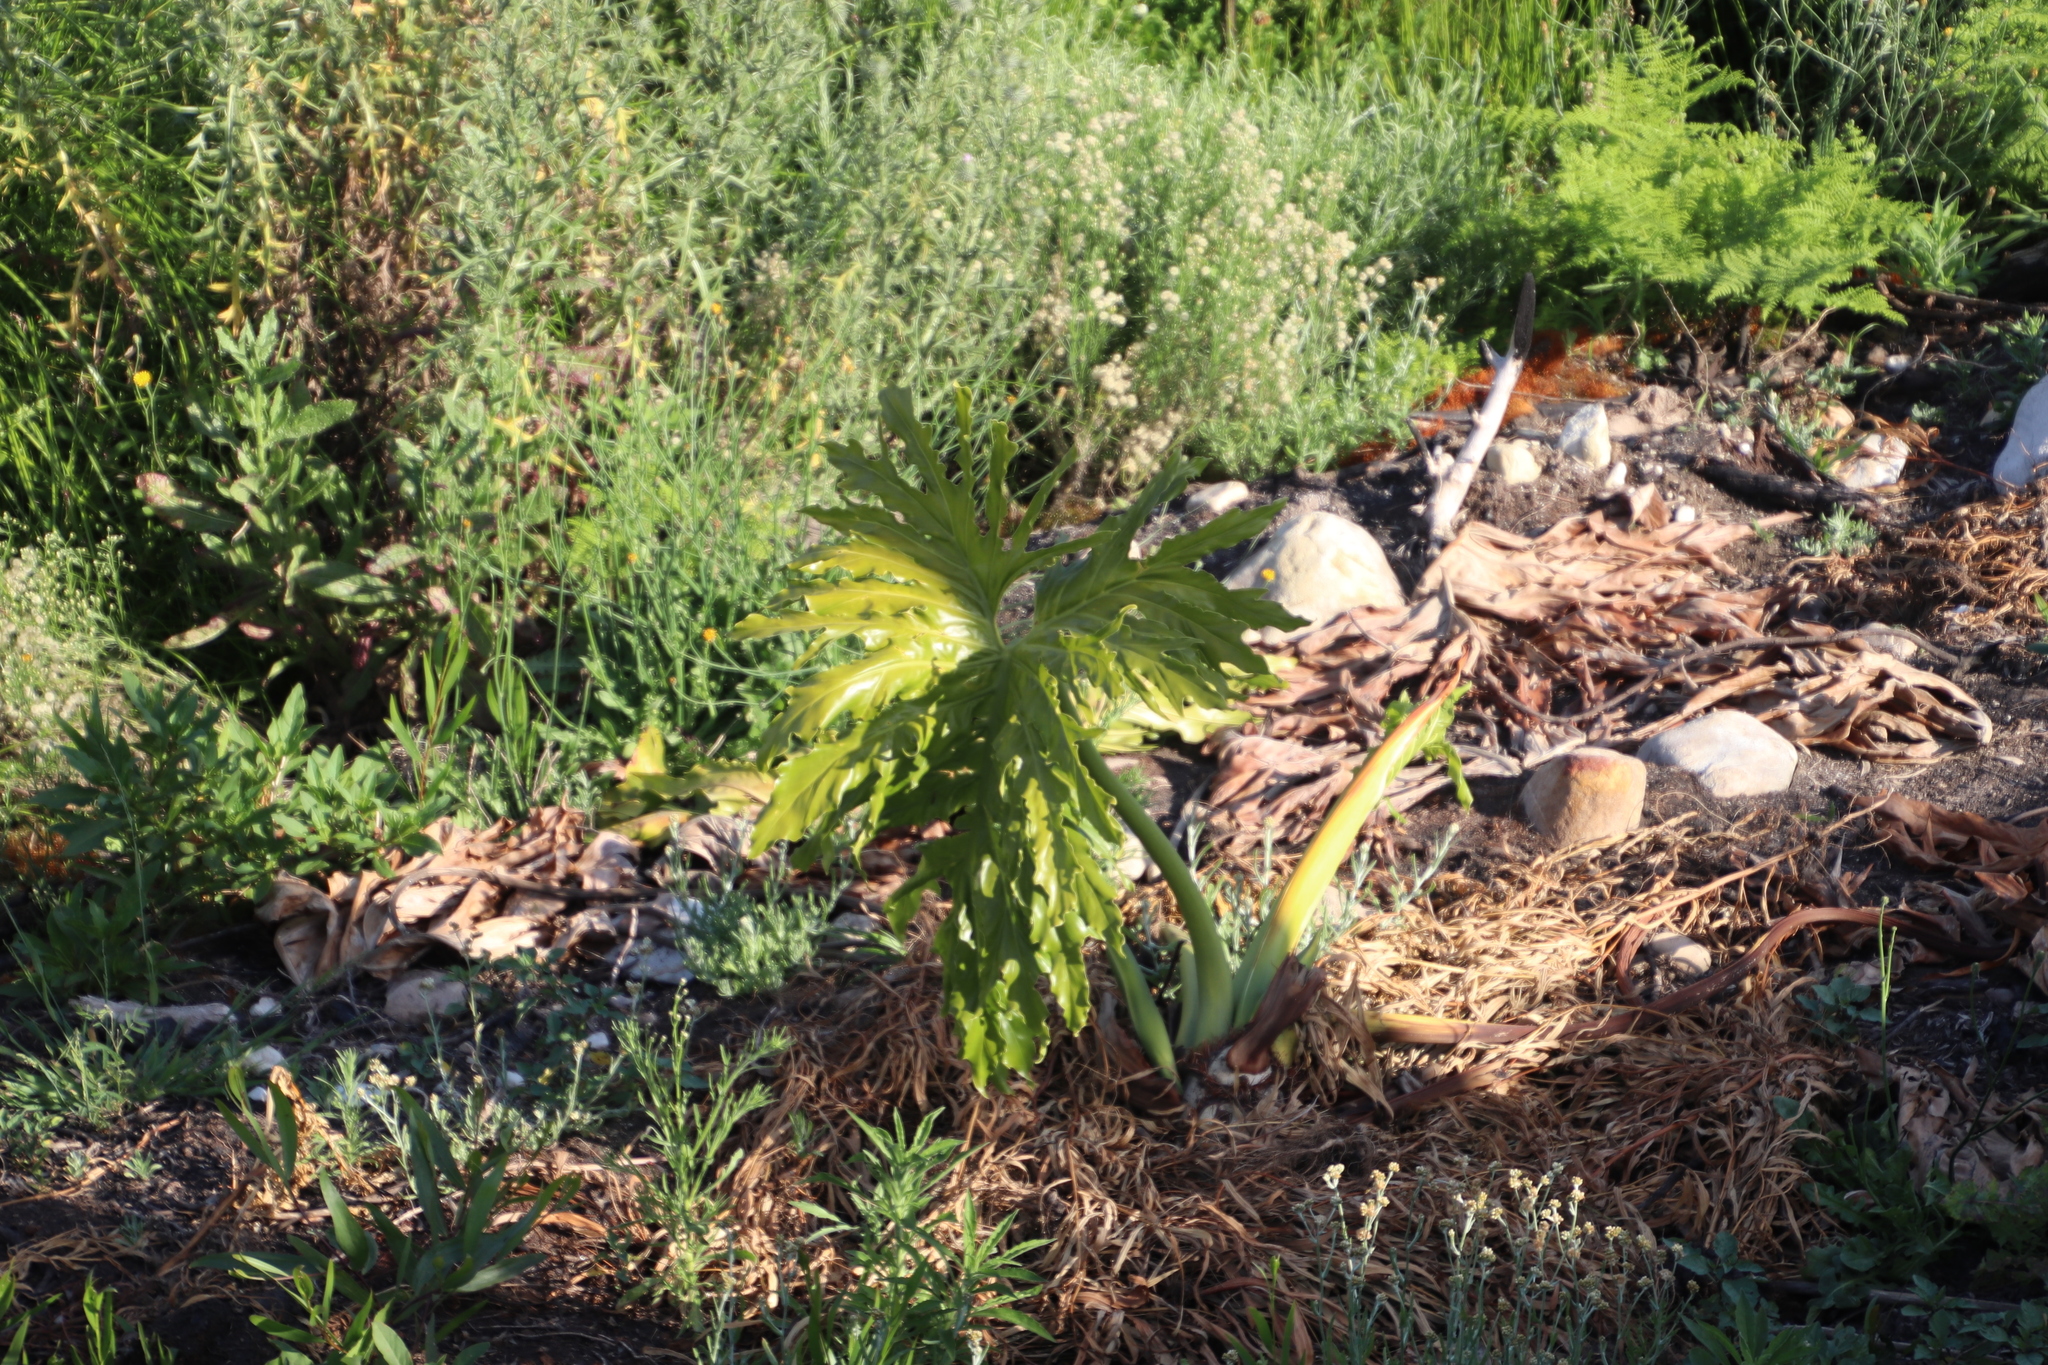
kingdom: Plantae
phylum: Tracheophyta
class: Liliopsida
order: Alismatales
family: Araceae
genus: Thaumatophyllum
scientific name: Thaumatophyllum bipinnatifidum
